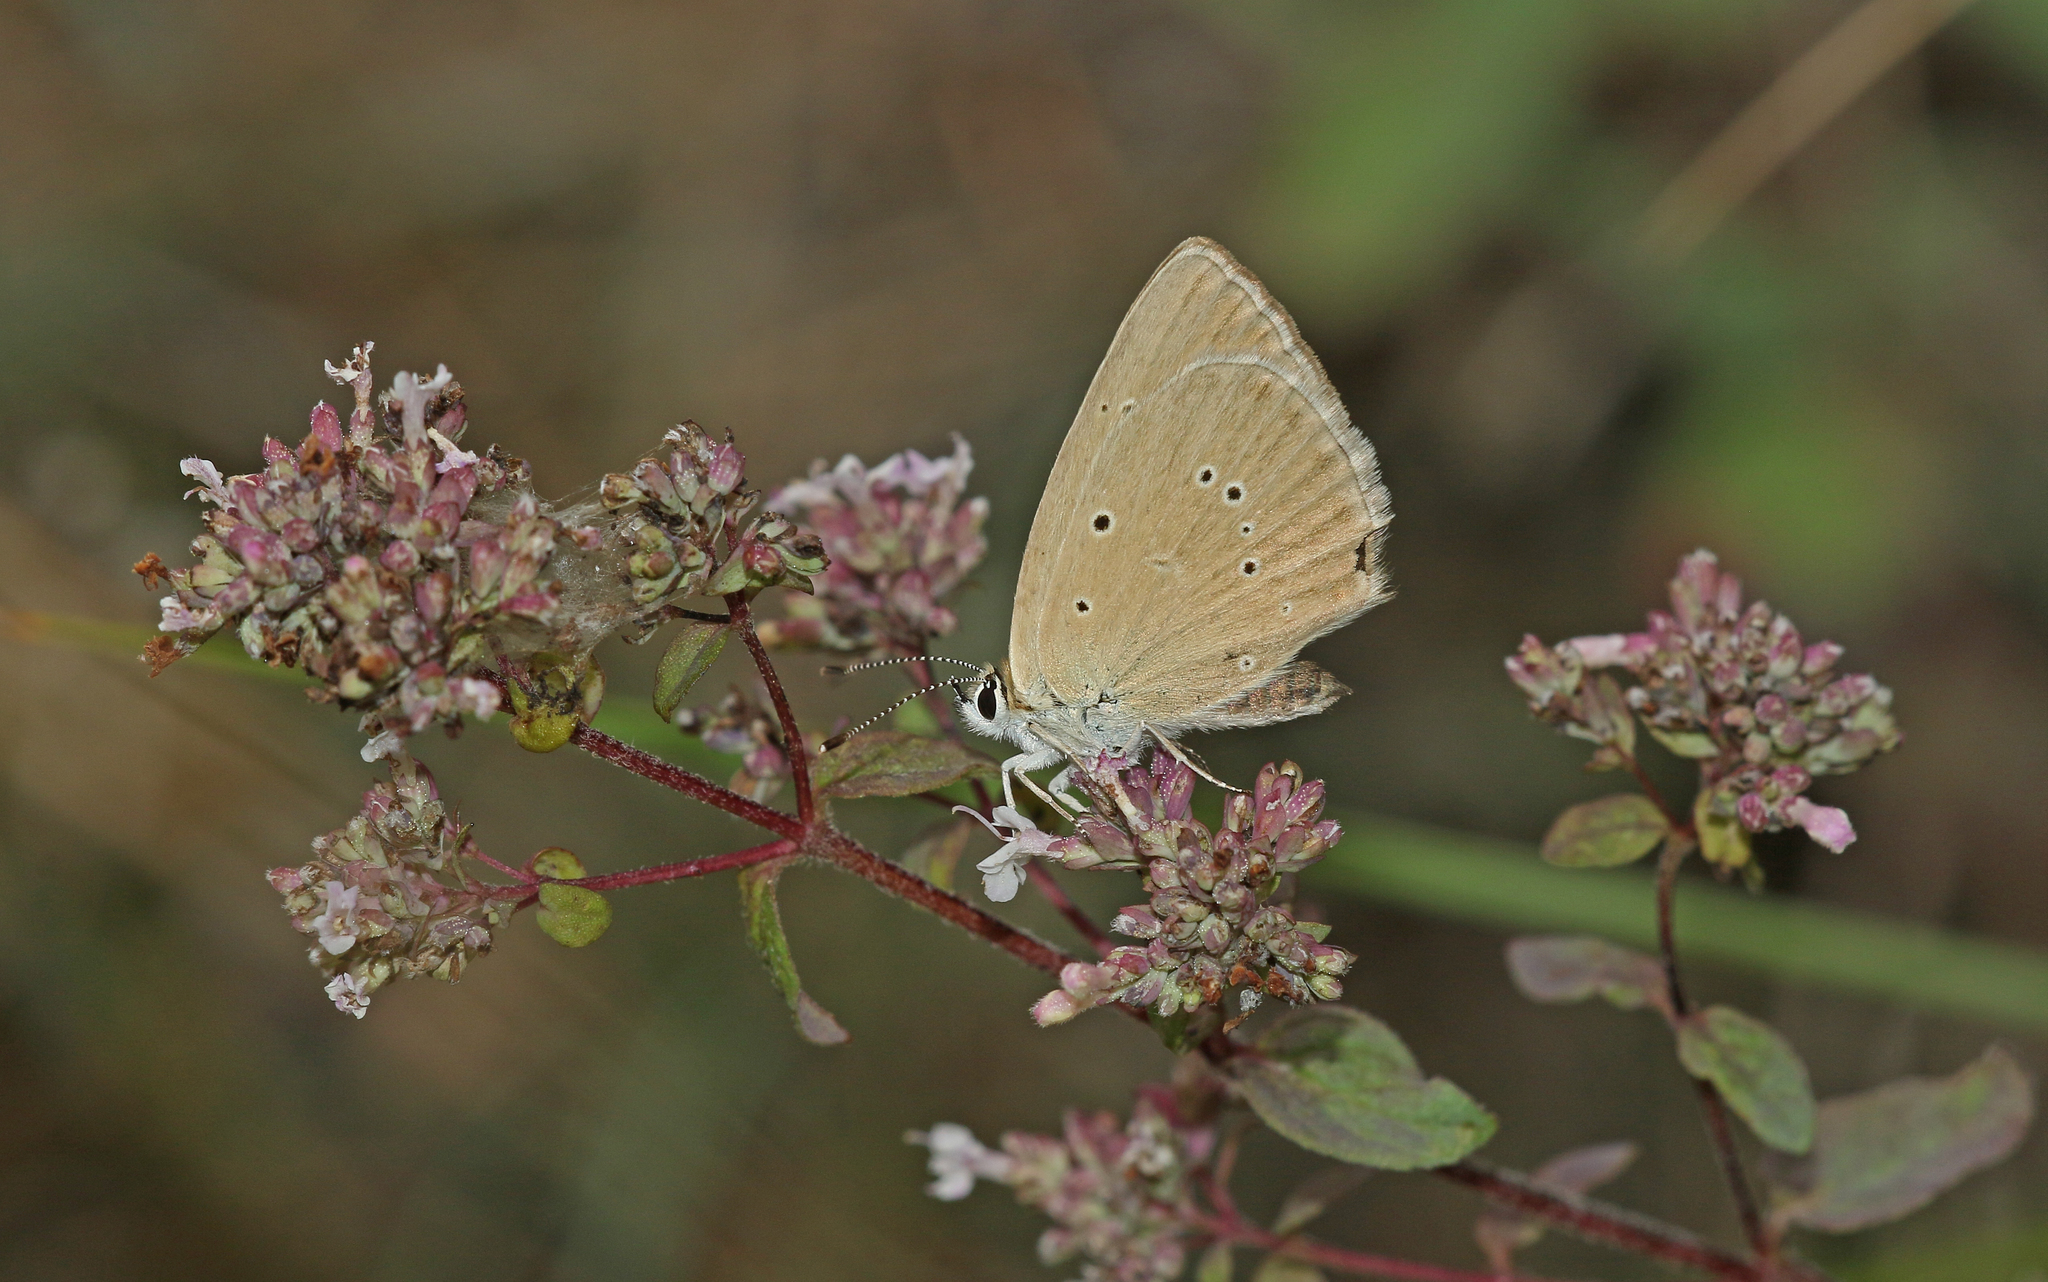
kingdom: Animalia
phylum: Arthropoda
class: Insecta
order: Lepidoptera
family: Lycaenidae
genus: Agrodiaetus
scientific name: Agrodiaetus humedasae
